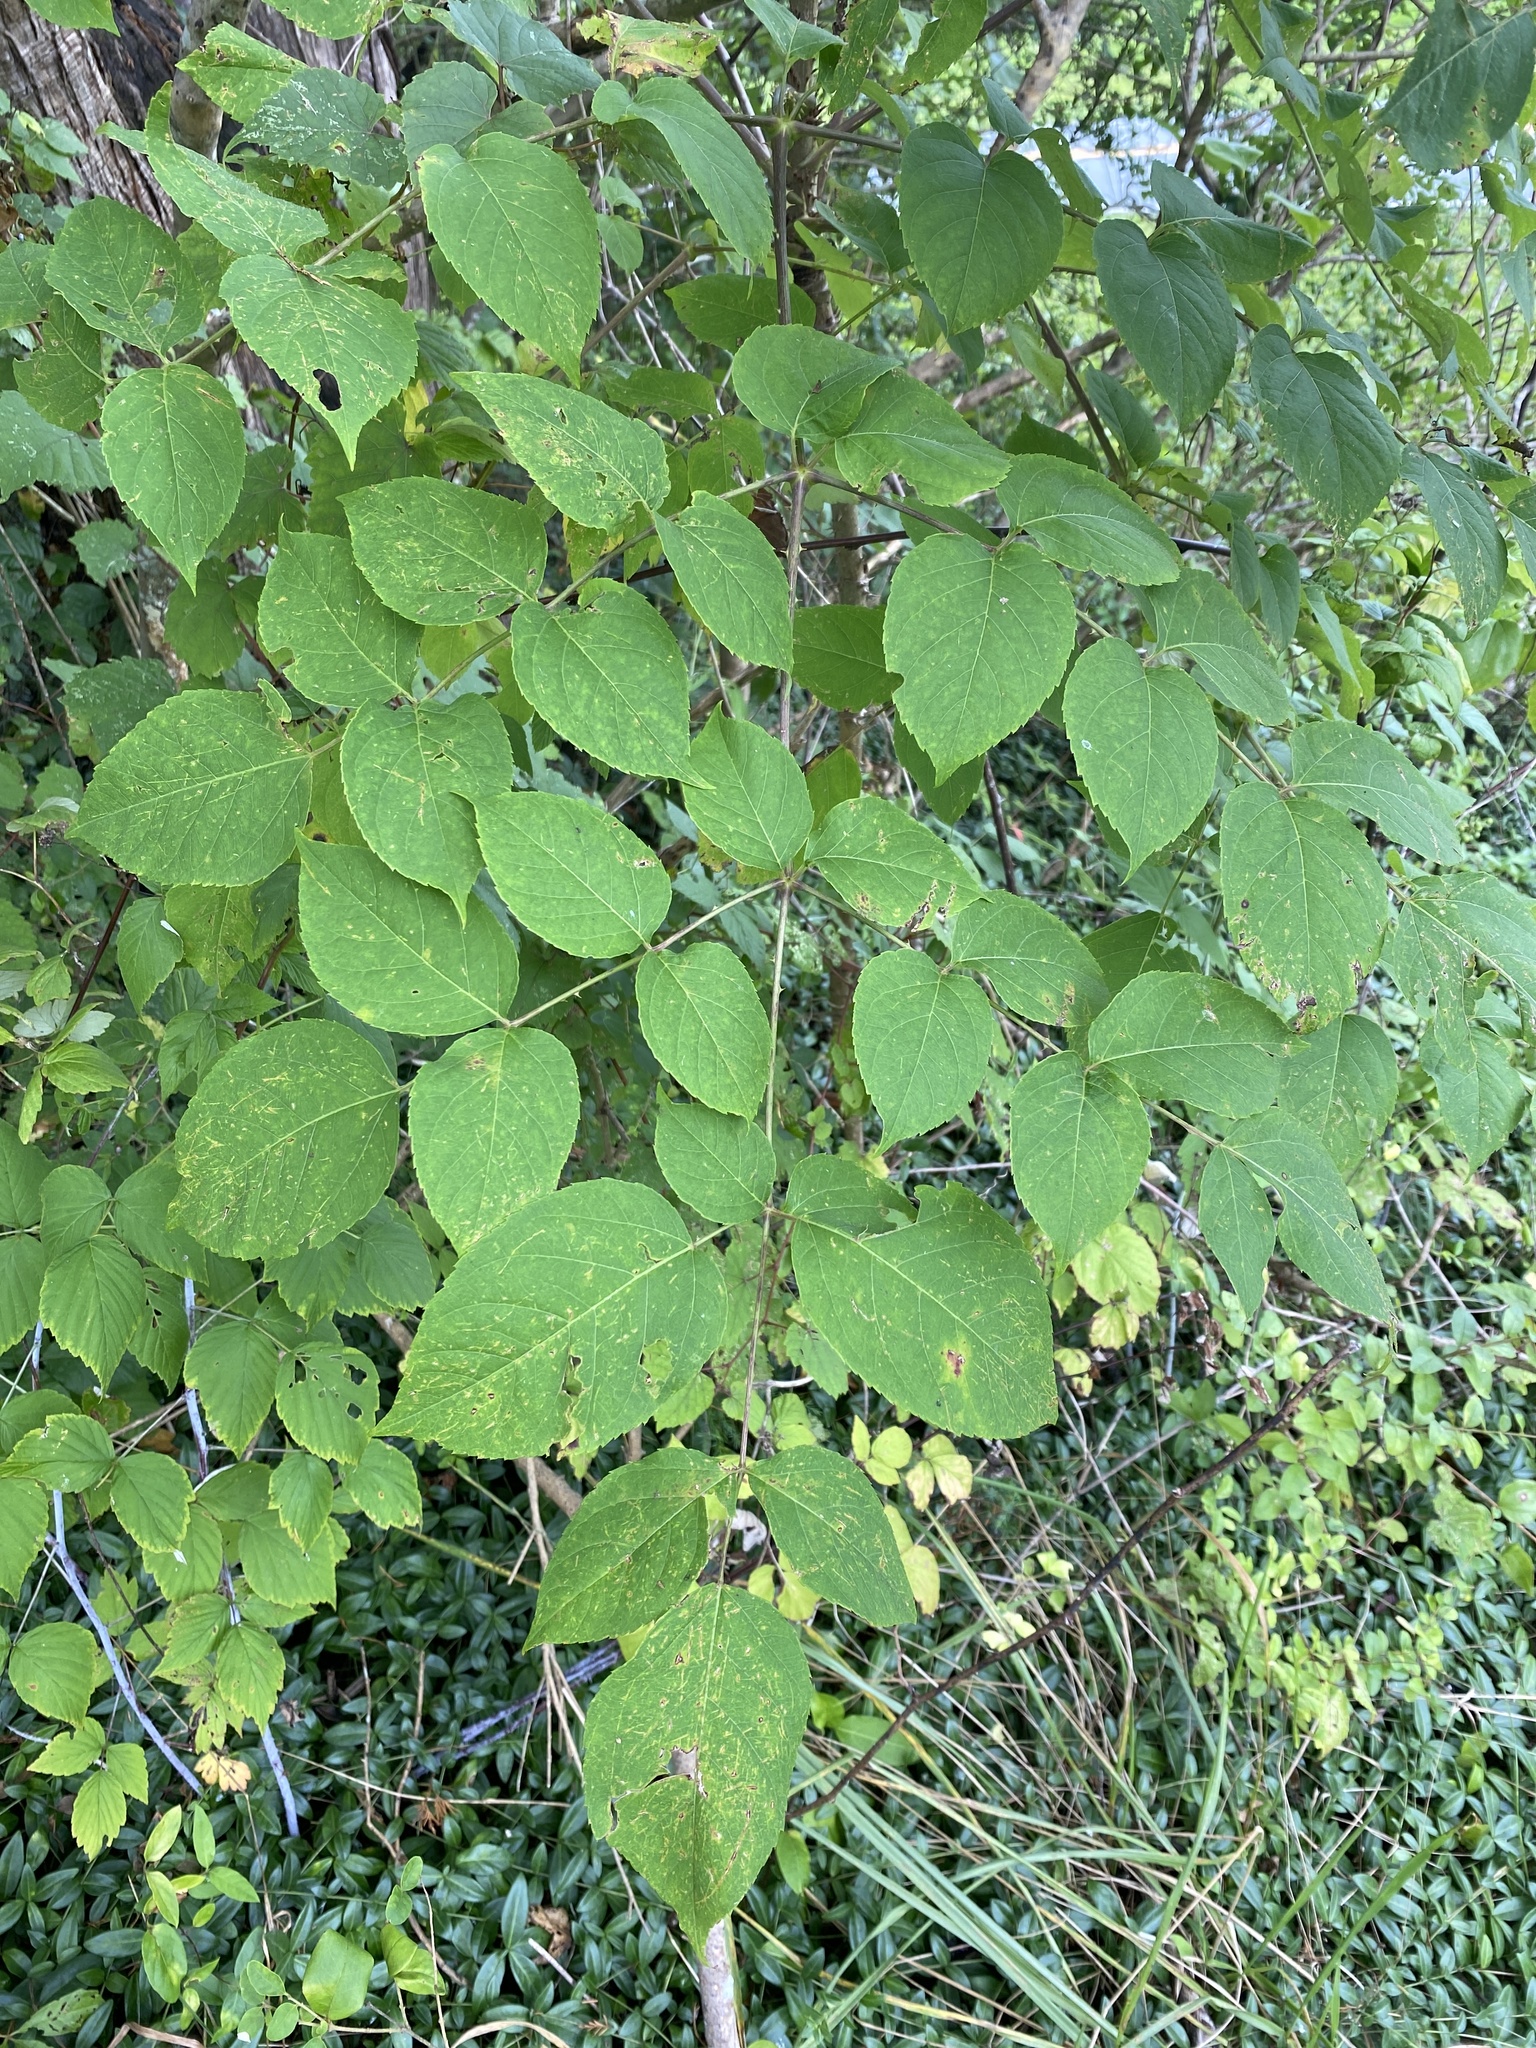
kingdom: Plantae
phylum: Tracheophyta
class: Magnoliopsida
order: Apiales
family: Araliaceae
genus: Aralia
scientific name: Aralia spinosa
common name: Hercules'-club
